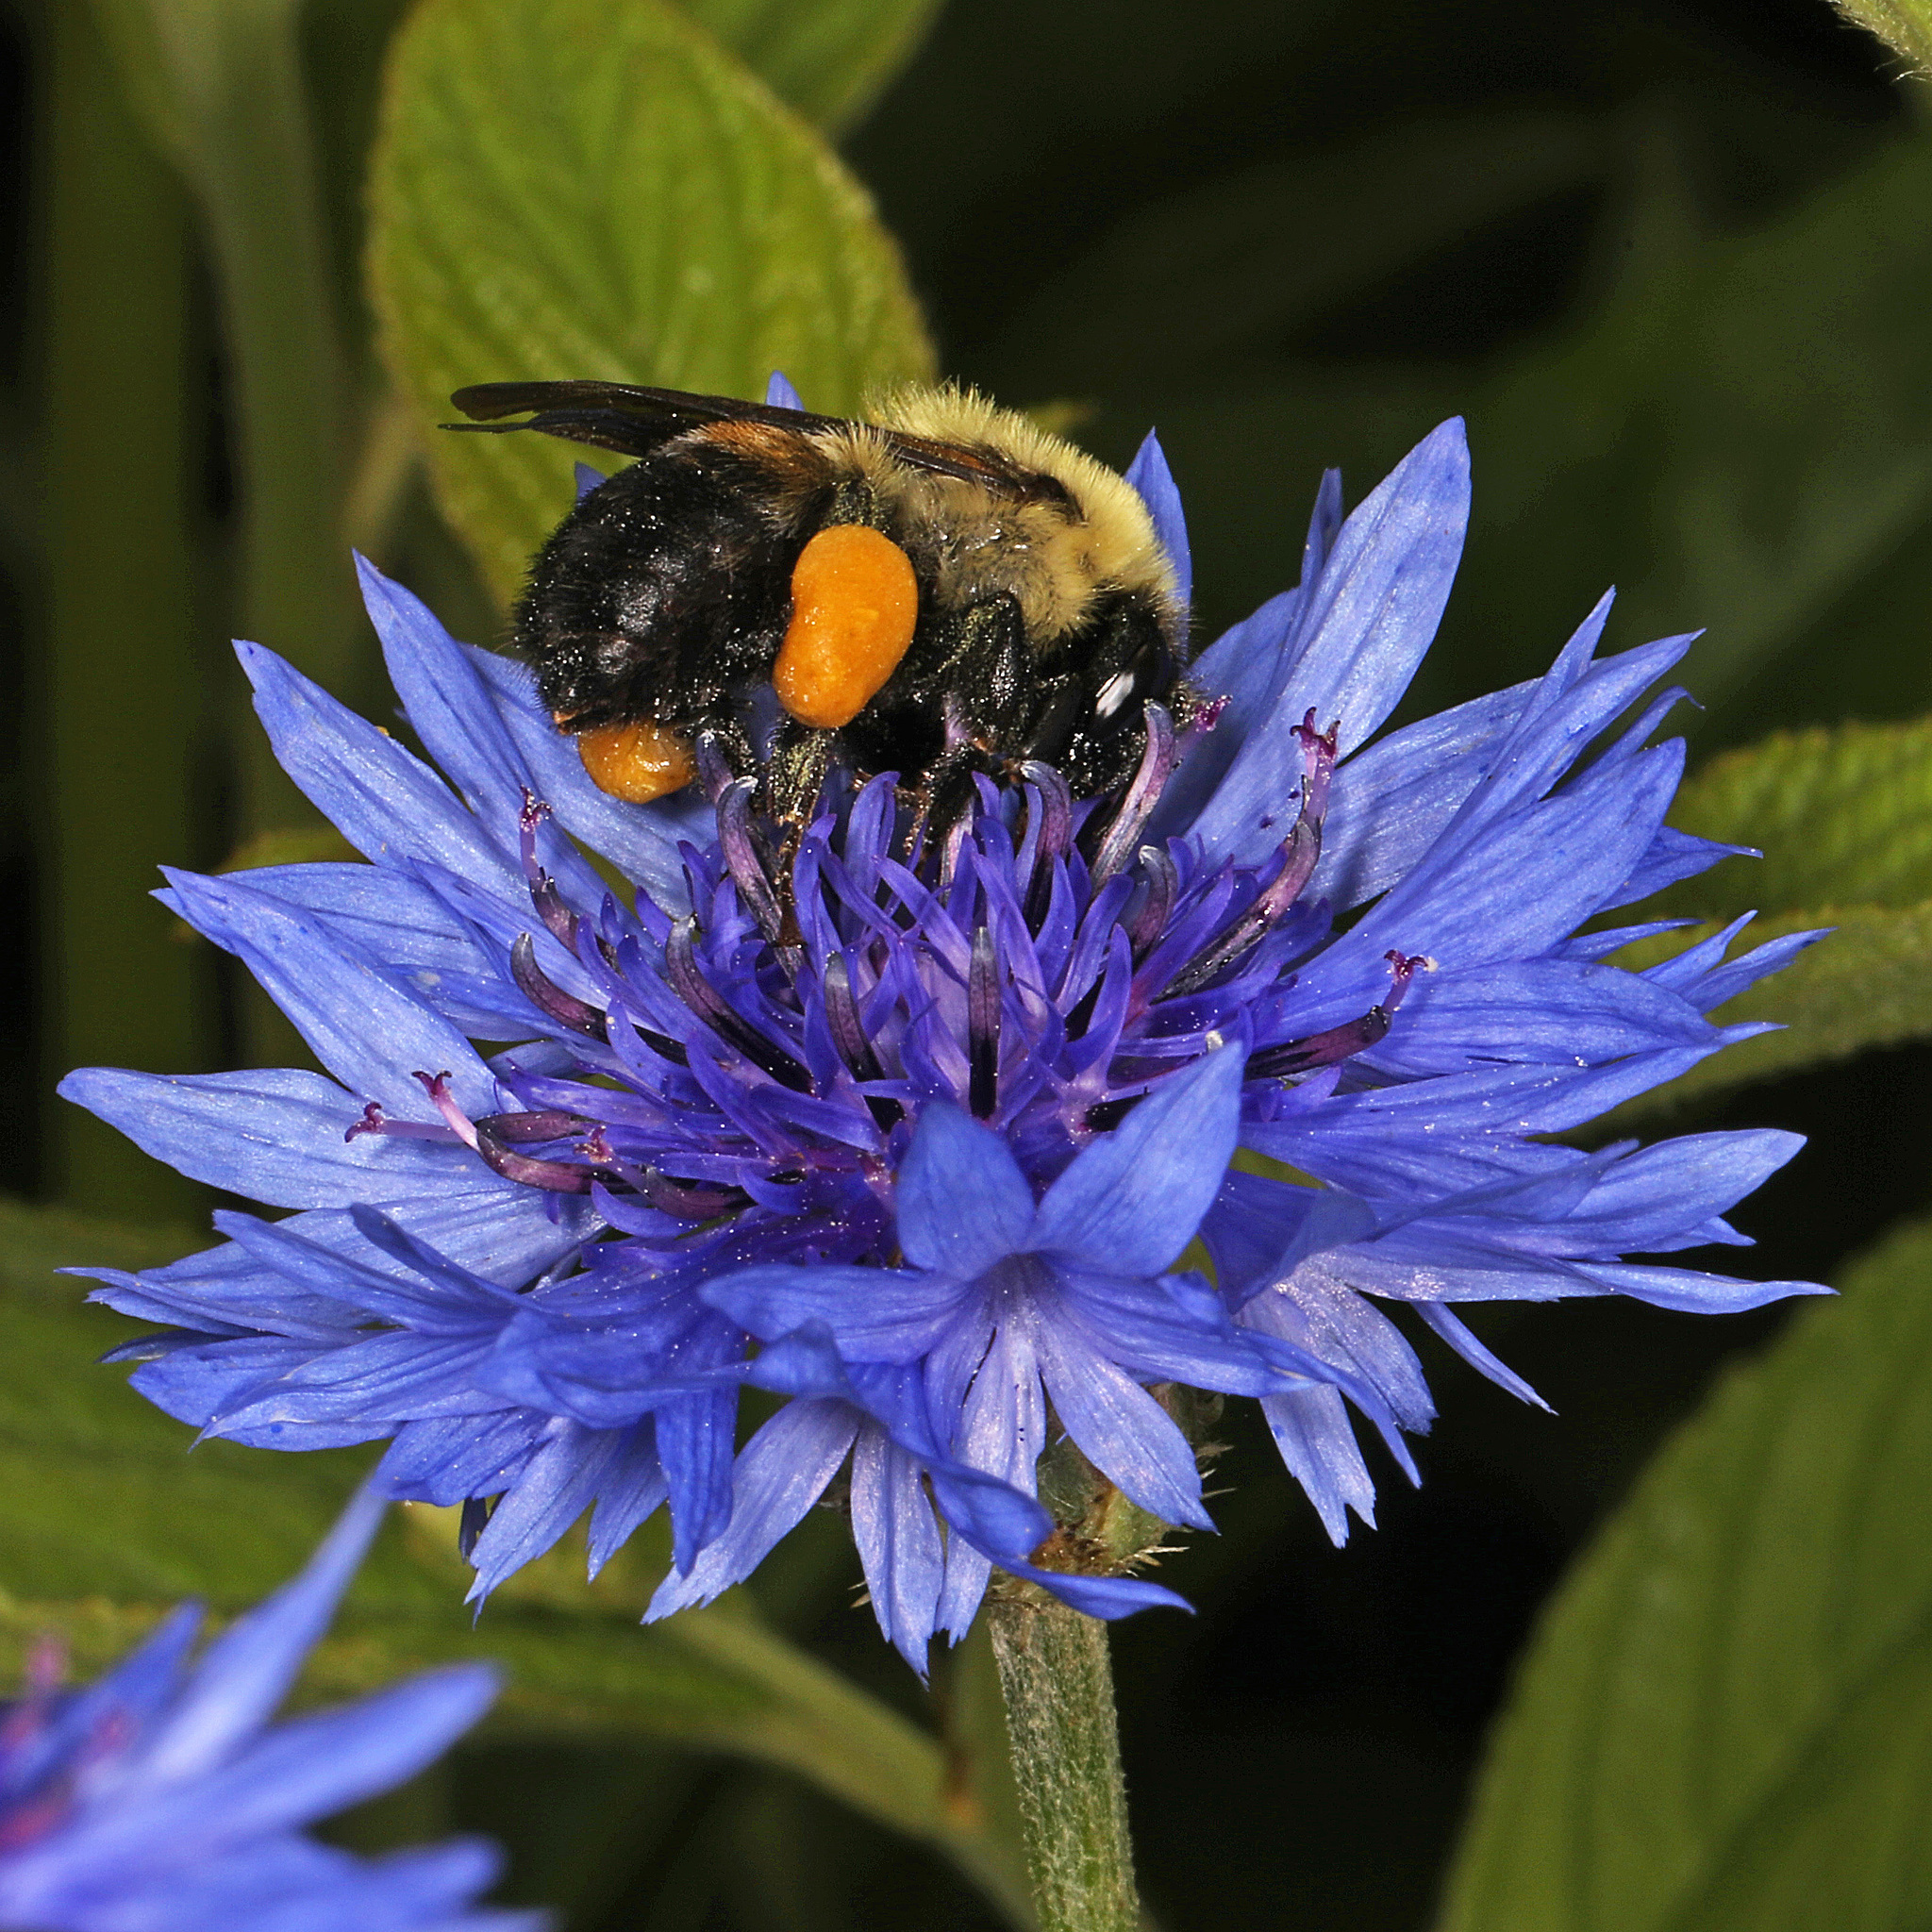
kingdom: Animalia
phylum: Arthropoda
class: Insecta
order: Hymenoptera
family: Apidae
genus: Bombus
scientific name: Bombus griseocollis
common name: Brown-belted bumble bee
